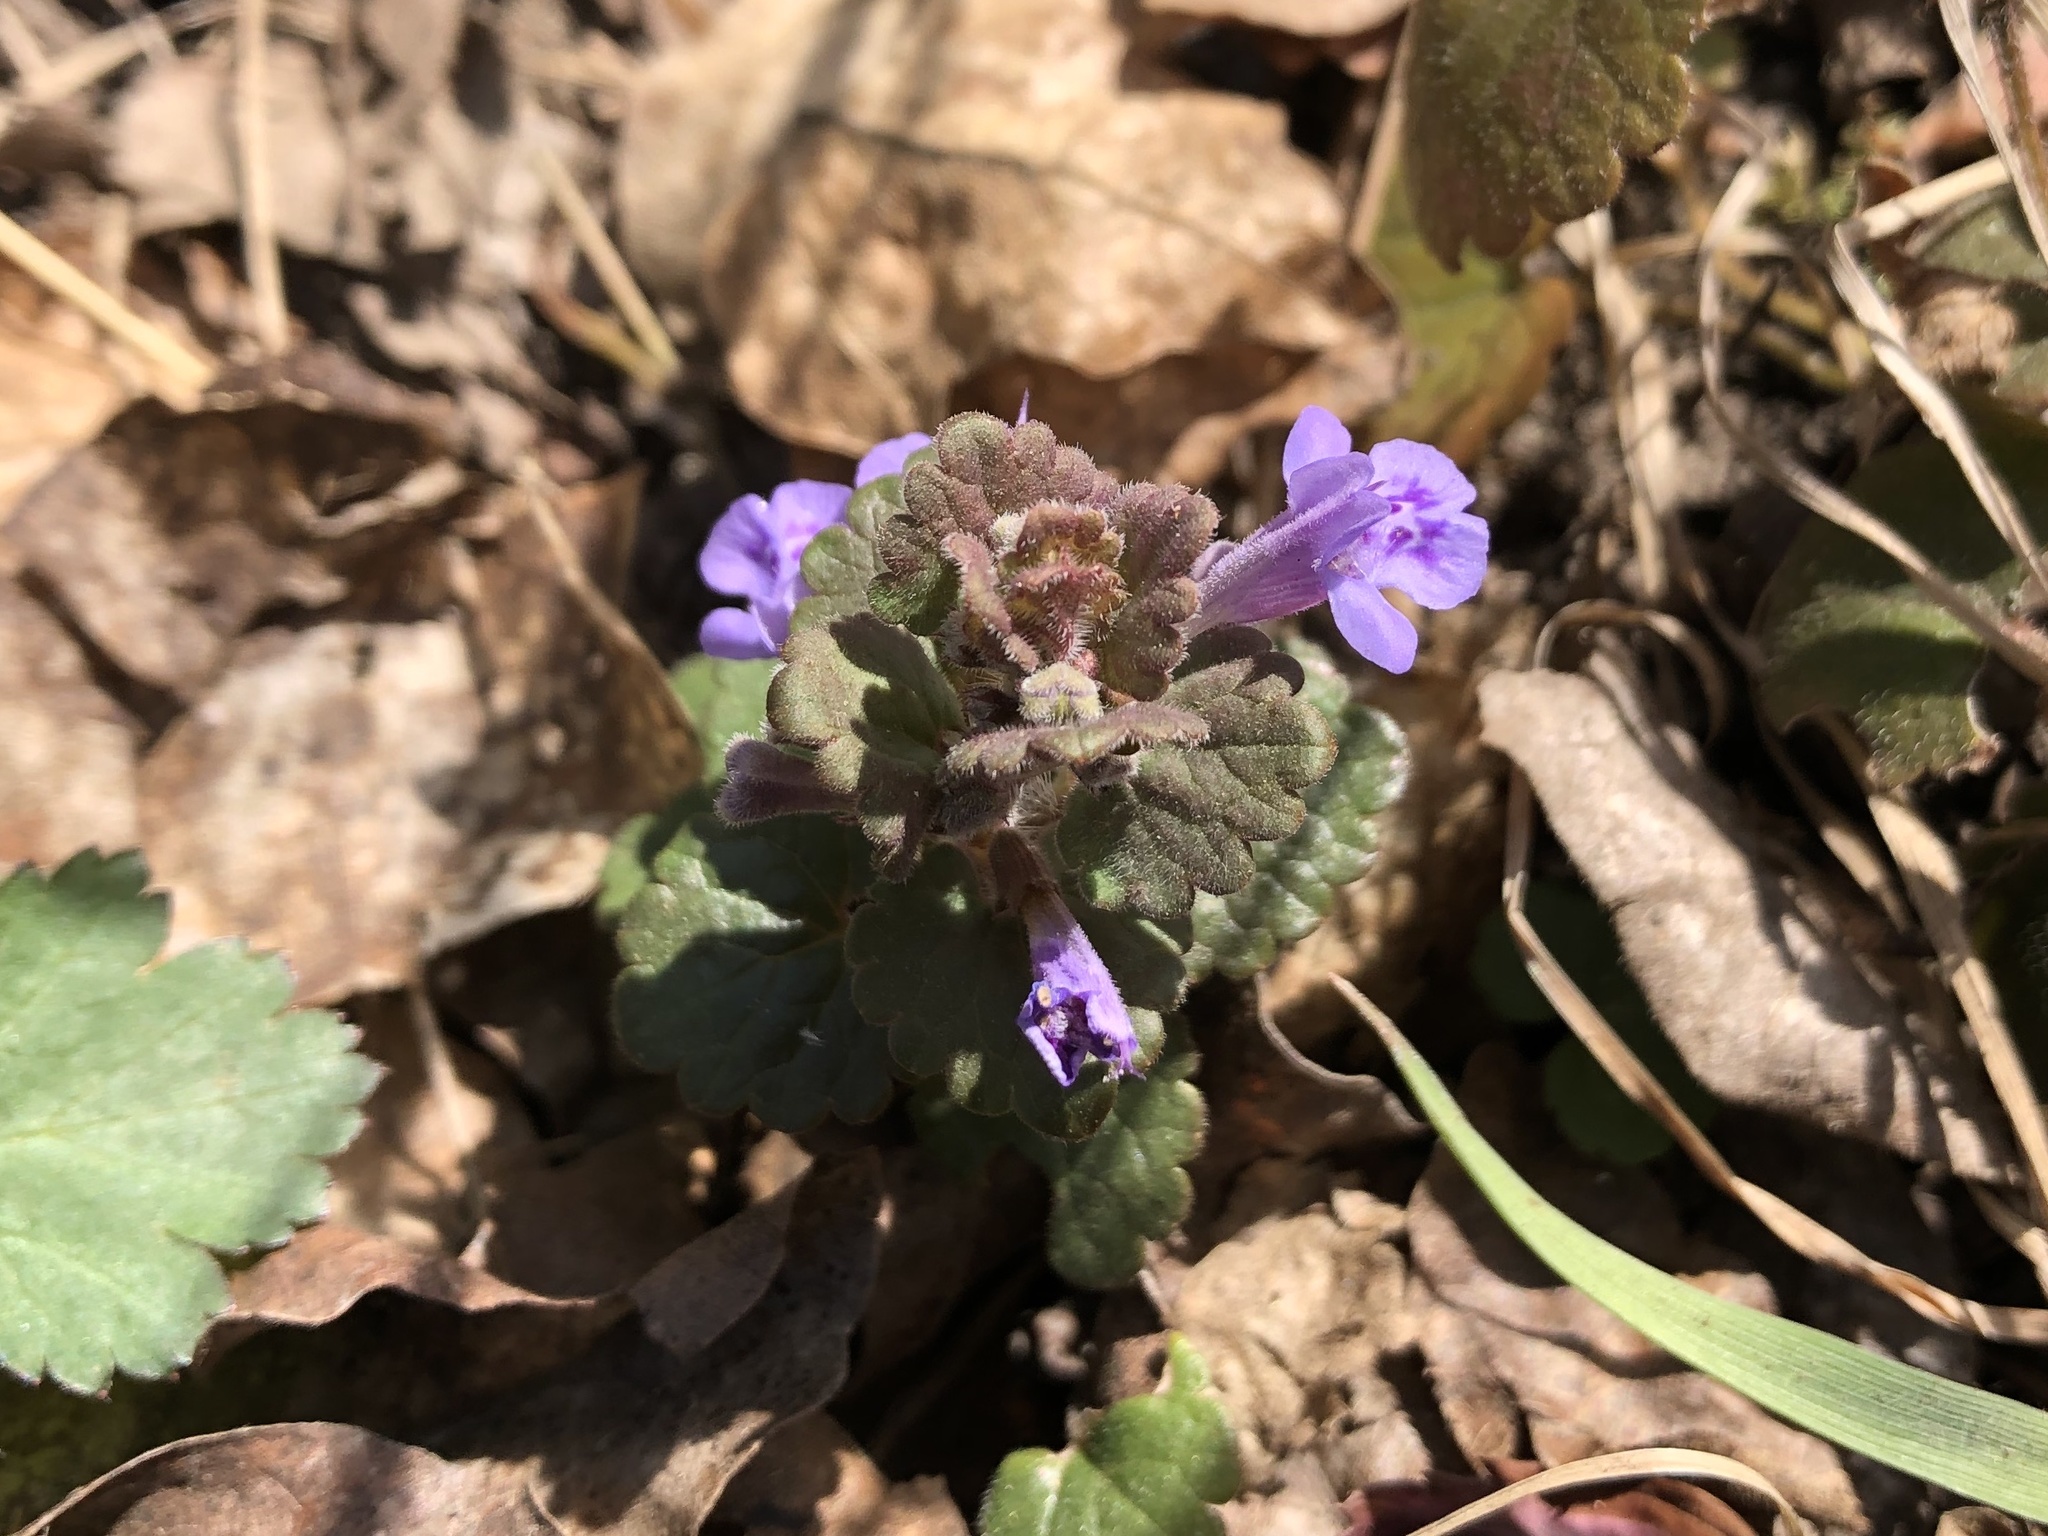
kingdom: Plantae
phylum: Tracheophyta
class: Magnoliopsida
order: Lamiales
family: Lamiaceae
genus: Glechoma
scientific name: Glechoma hederacea
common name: Ground ivy
